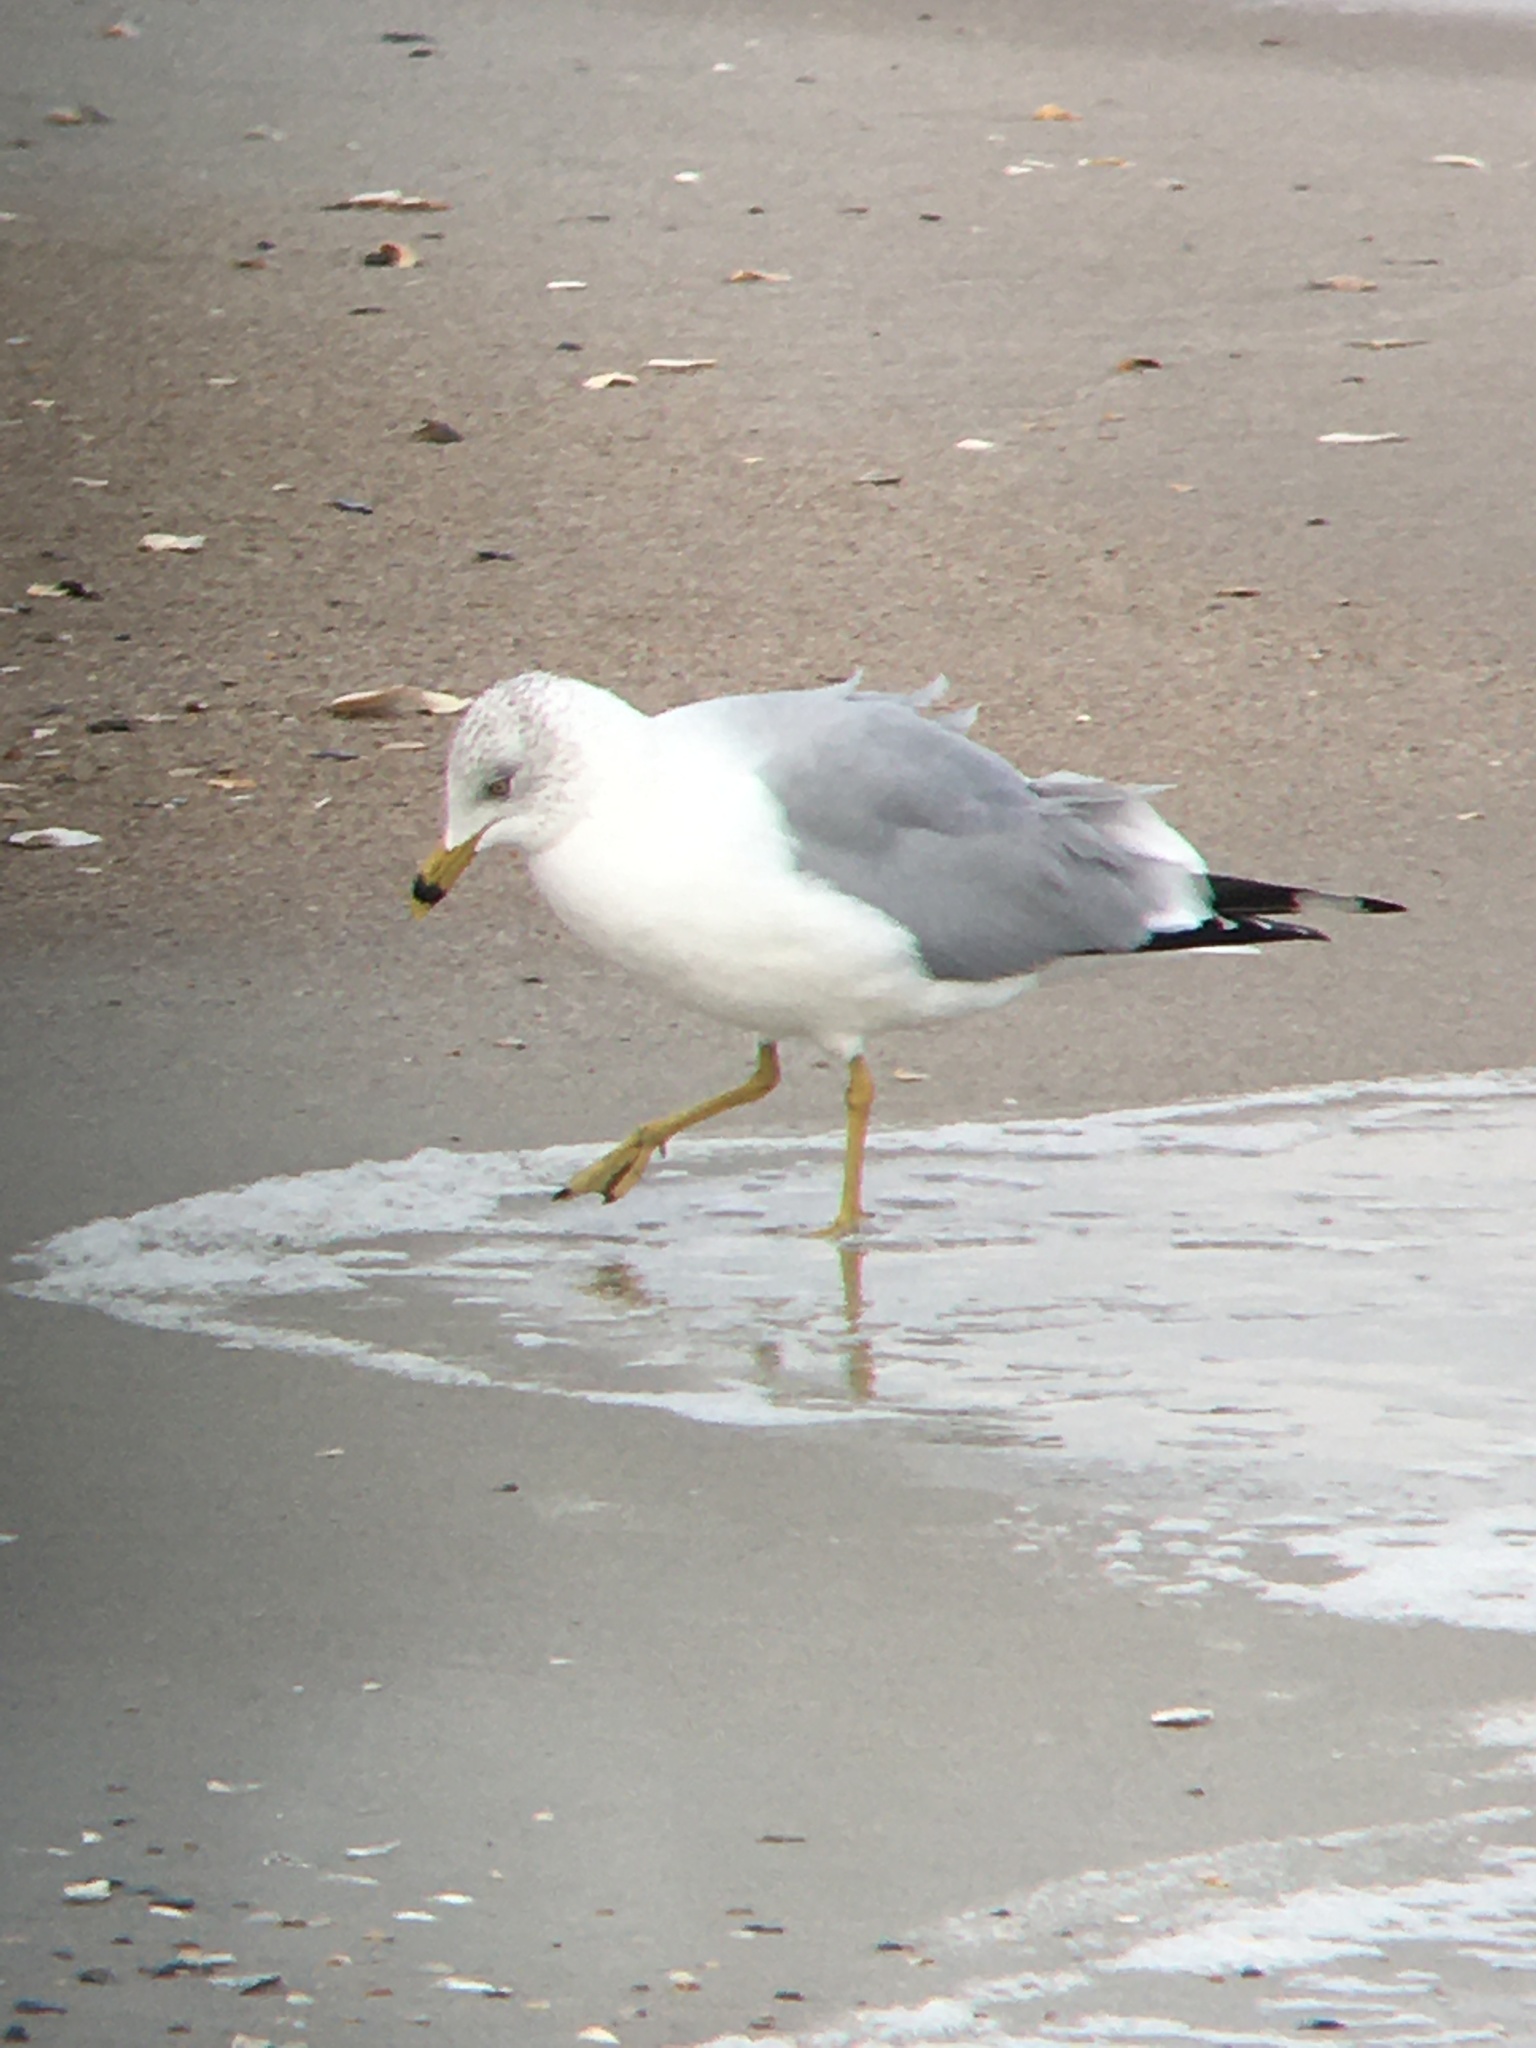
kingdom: Animalia
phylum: Chordata
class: Aves
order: Charadriiformes
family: Laridae
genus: Larus
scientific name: Larus delawarensis
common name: Ring-billed gull
